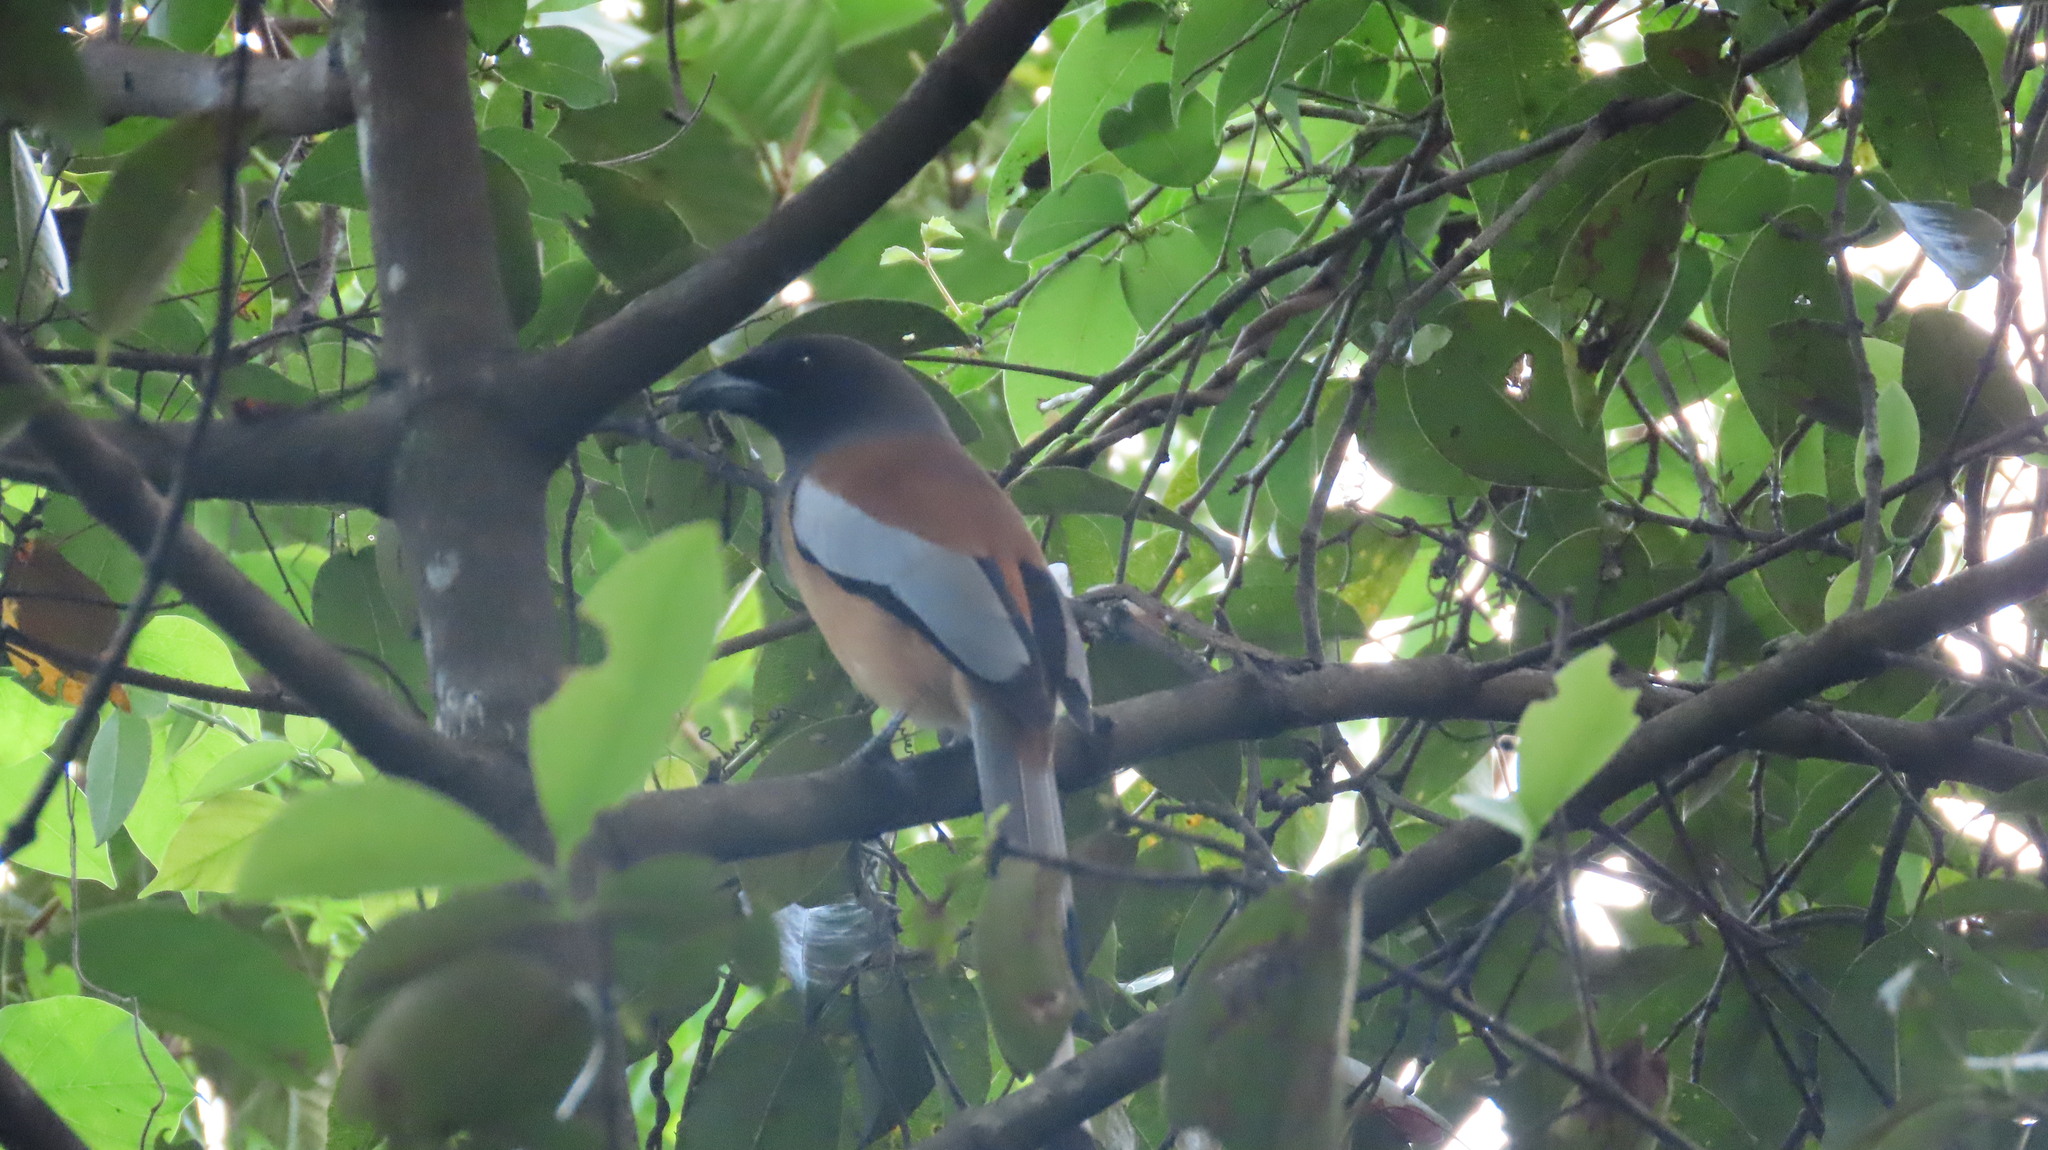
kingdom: Animalia
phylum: Chordata
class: Aves
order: Passeriformes
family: Corvidae
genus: Dendrocitta
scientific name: Dendrocitta vagabunda
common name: Rufous treepie
